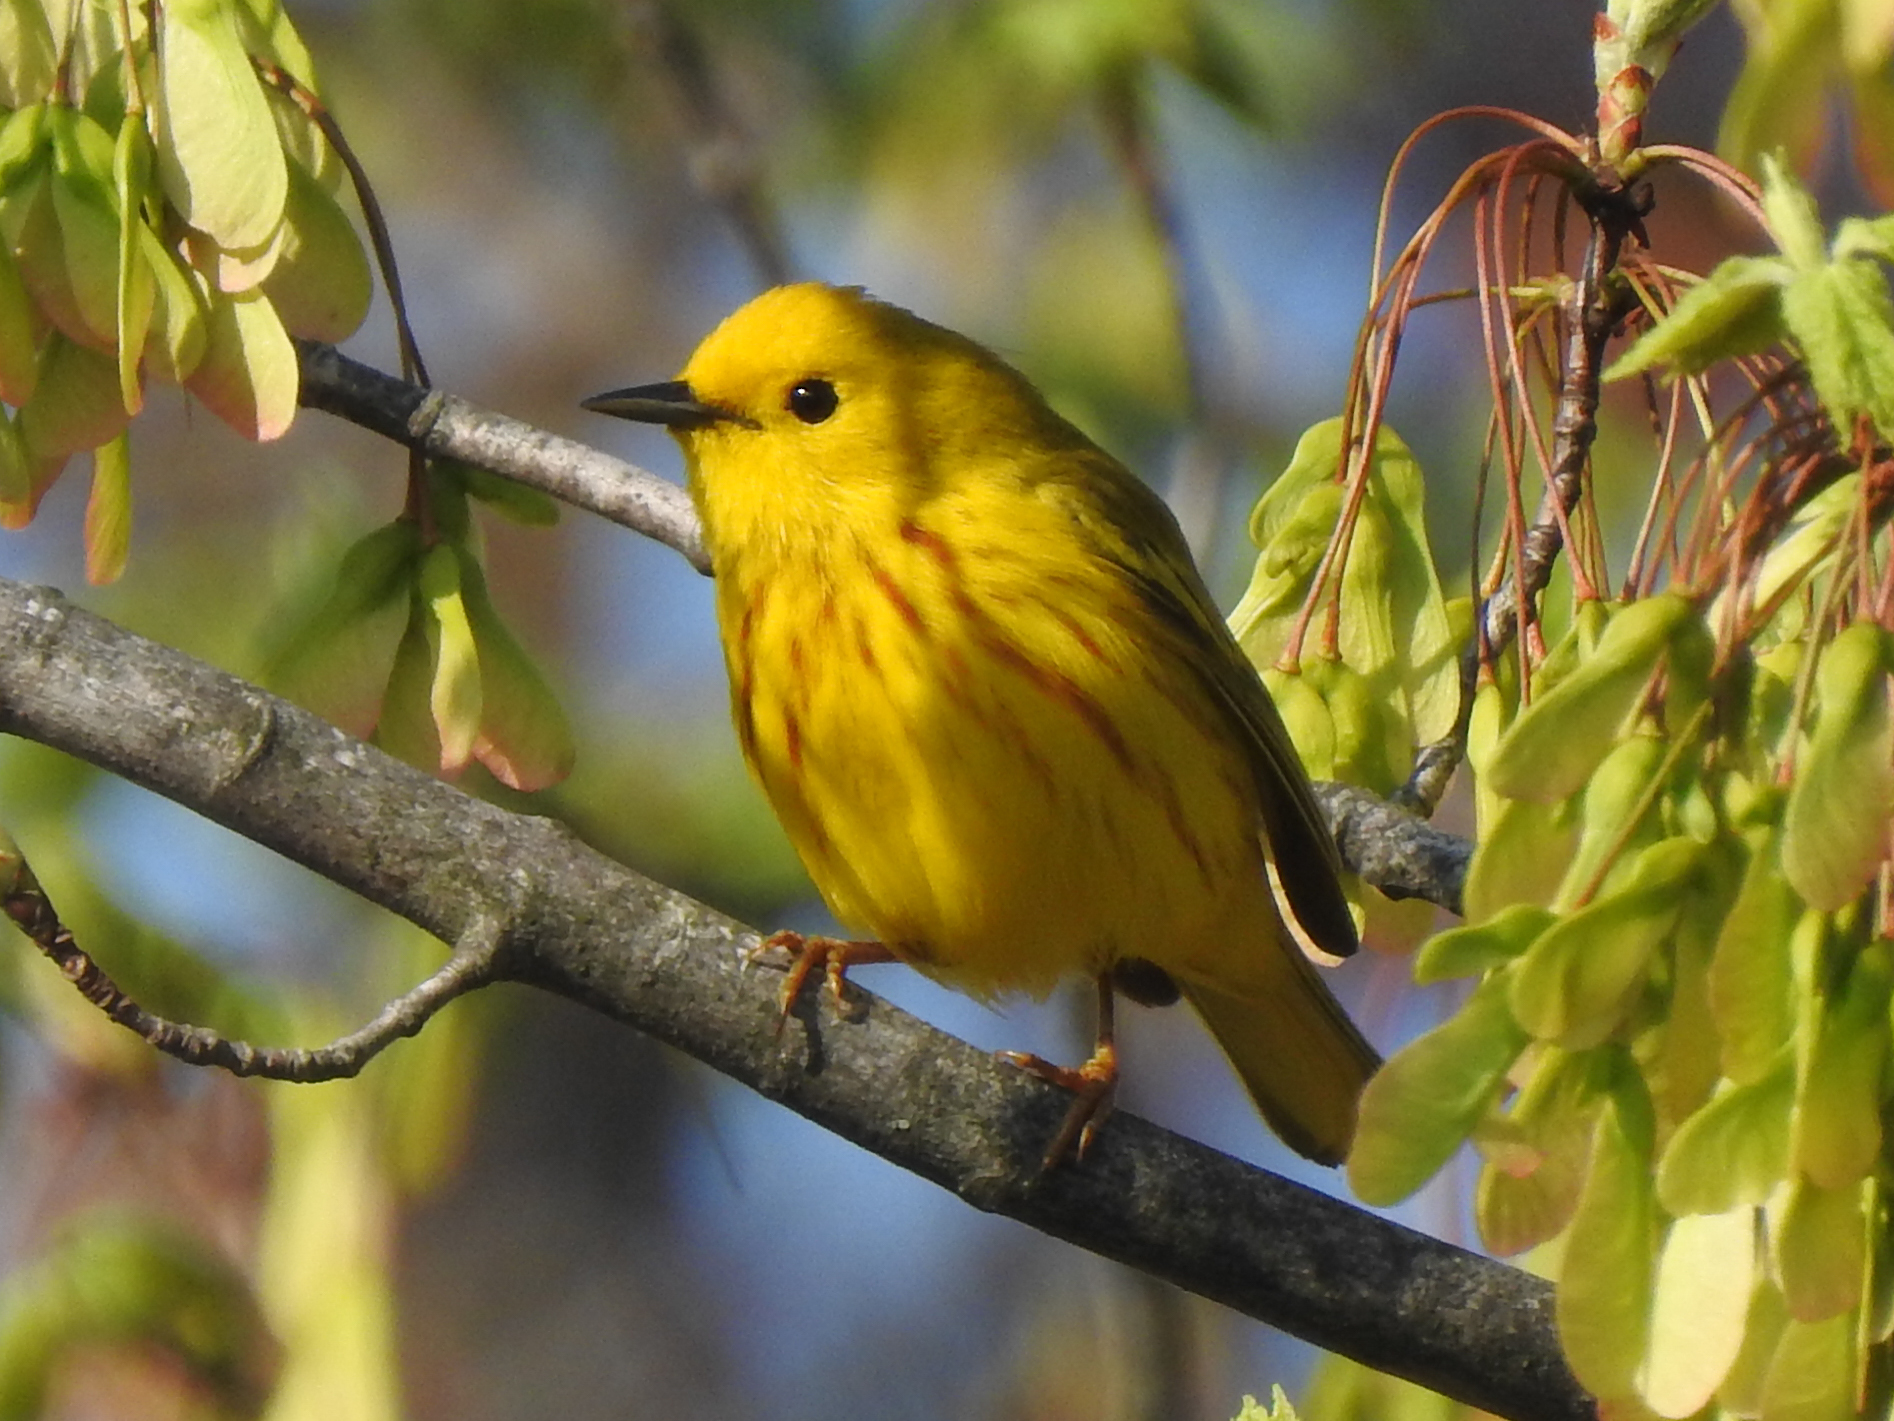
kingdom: Animalia
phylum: Chordata
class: Aves
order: Passeriformes
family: Parulidae
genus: Setophaga
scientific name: Setophaga petechia
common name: Yellow warbler
